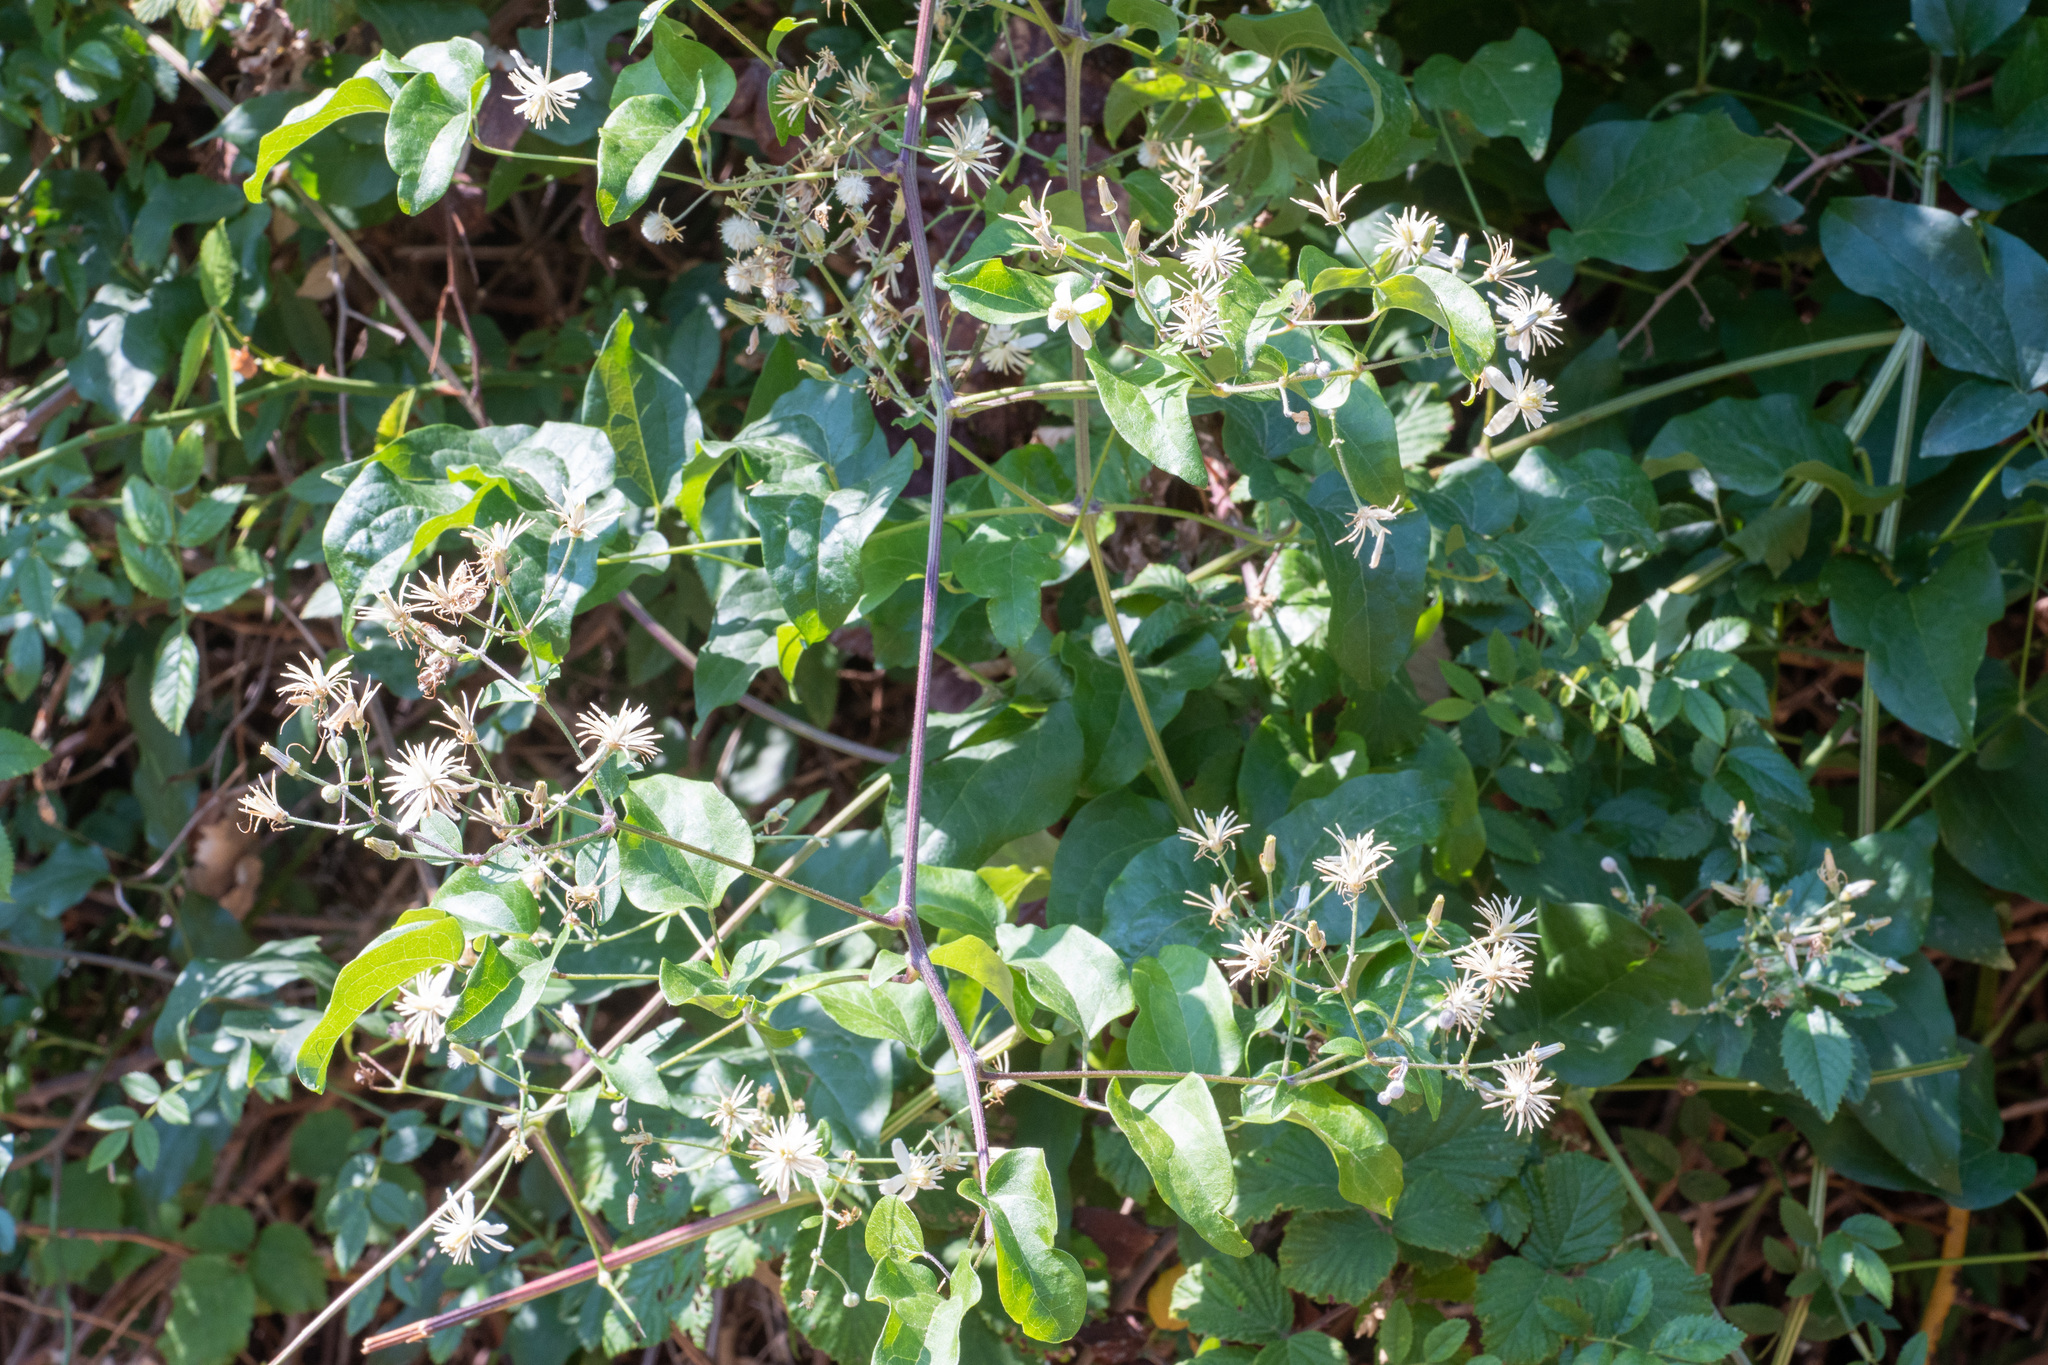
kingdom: Plantae
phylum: Tracheophyta
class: Magnoliopsida
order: Ranunculales
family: Ranunculaceae
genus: Clematis
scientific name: Clematis vitalba
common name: Evergreen clematis
